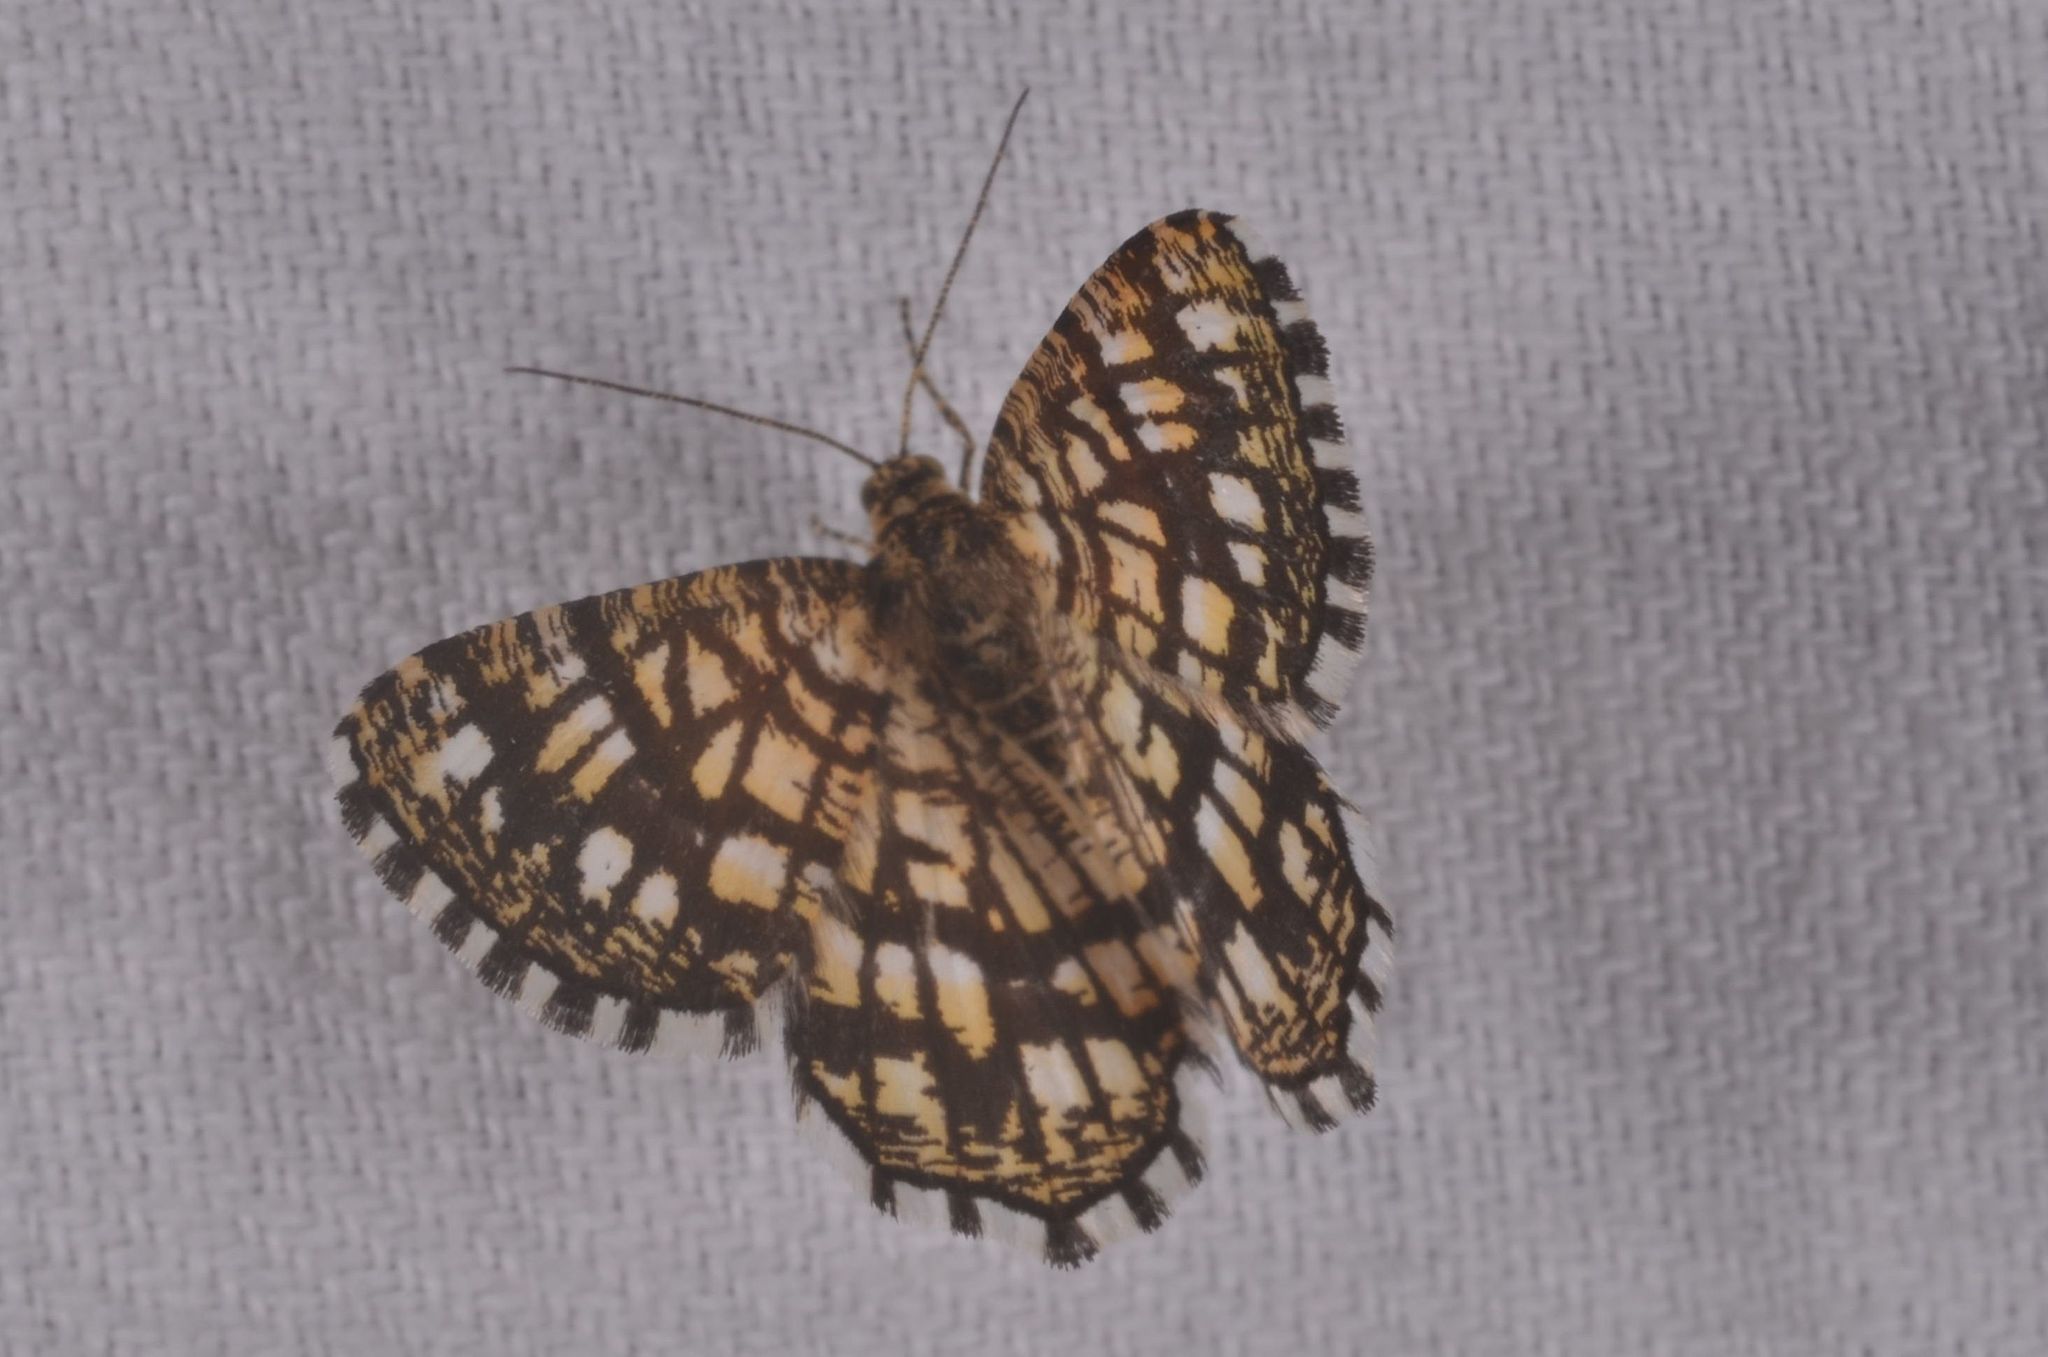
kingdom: Animalia
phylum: Arthropoda
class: Insecta
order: Lepidoptera
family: Geometridae
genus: Chiasmia
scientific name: Chiasmia clathrata
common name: Latticed heath
